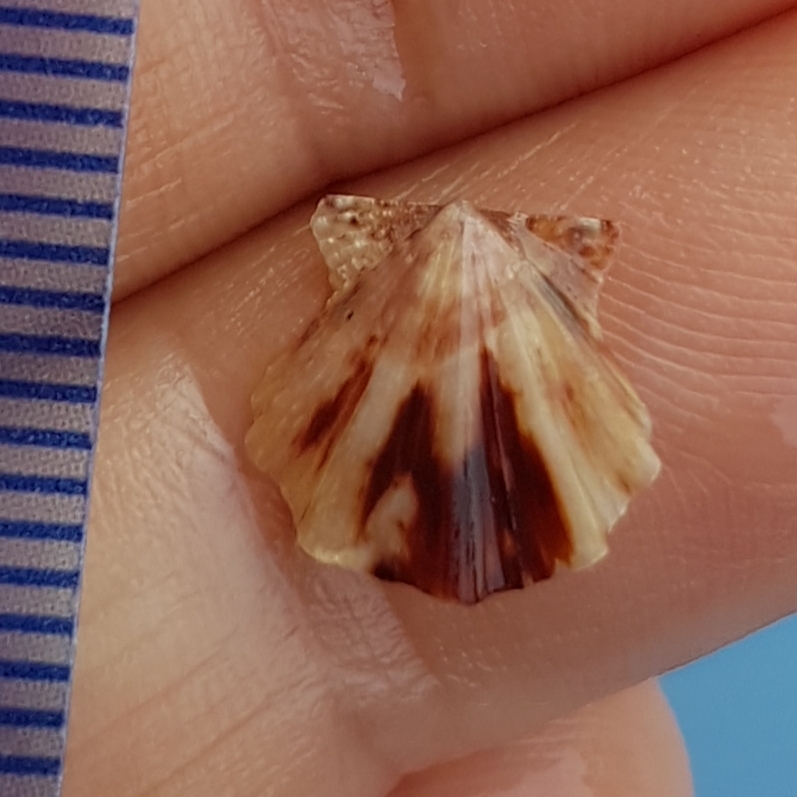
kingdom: Animalia
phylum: Mollusca
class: Bivalvia
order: Pectinida
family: Pectinidae
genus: Flexopecten
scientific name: Flexopecten flexuosus
